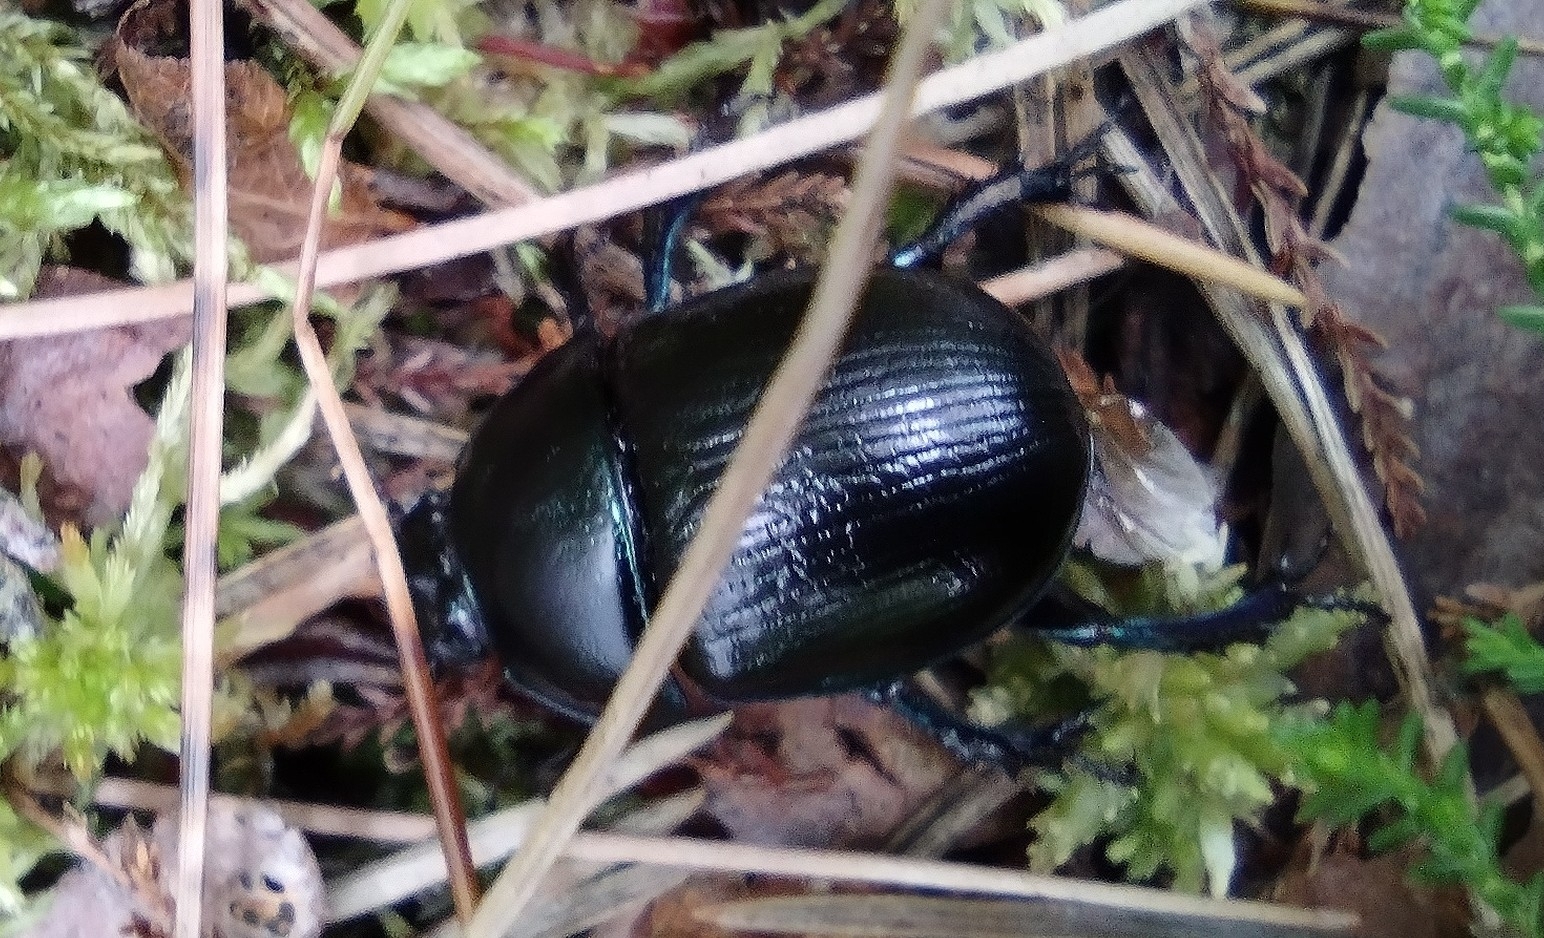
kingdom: Animalia
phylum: Arthropoda
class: Insecta
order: Coleoptera
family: Geotrupidae
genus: Anoplotrupes
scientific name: Anoplotrupes stercorosus
